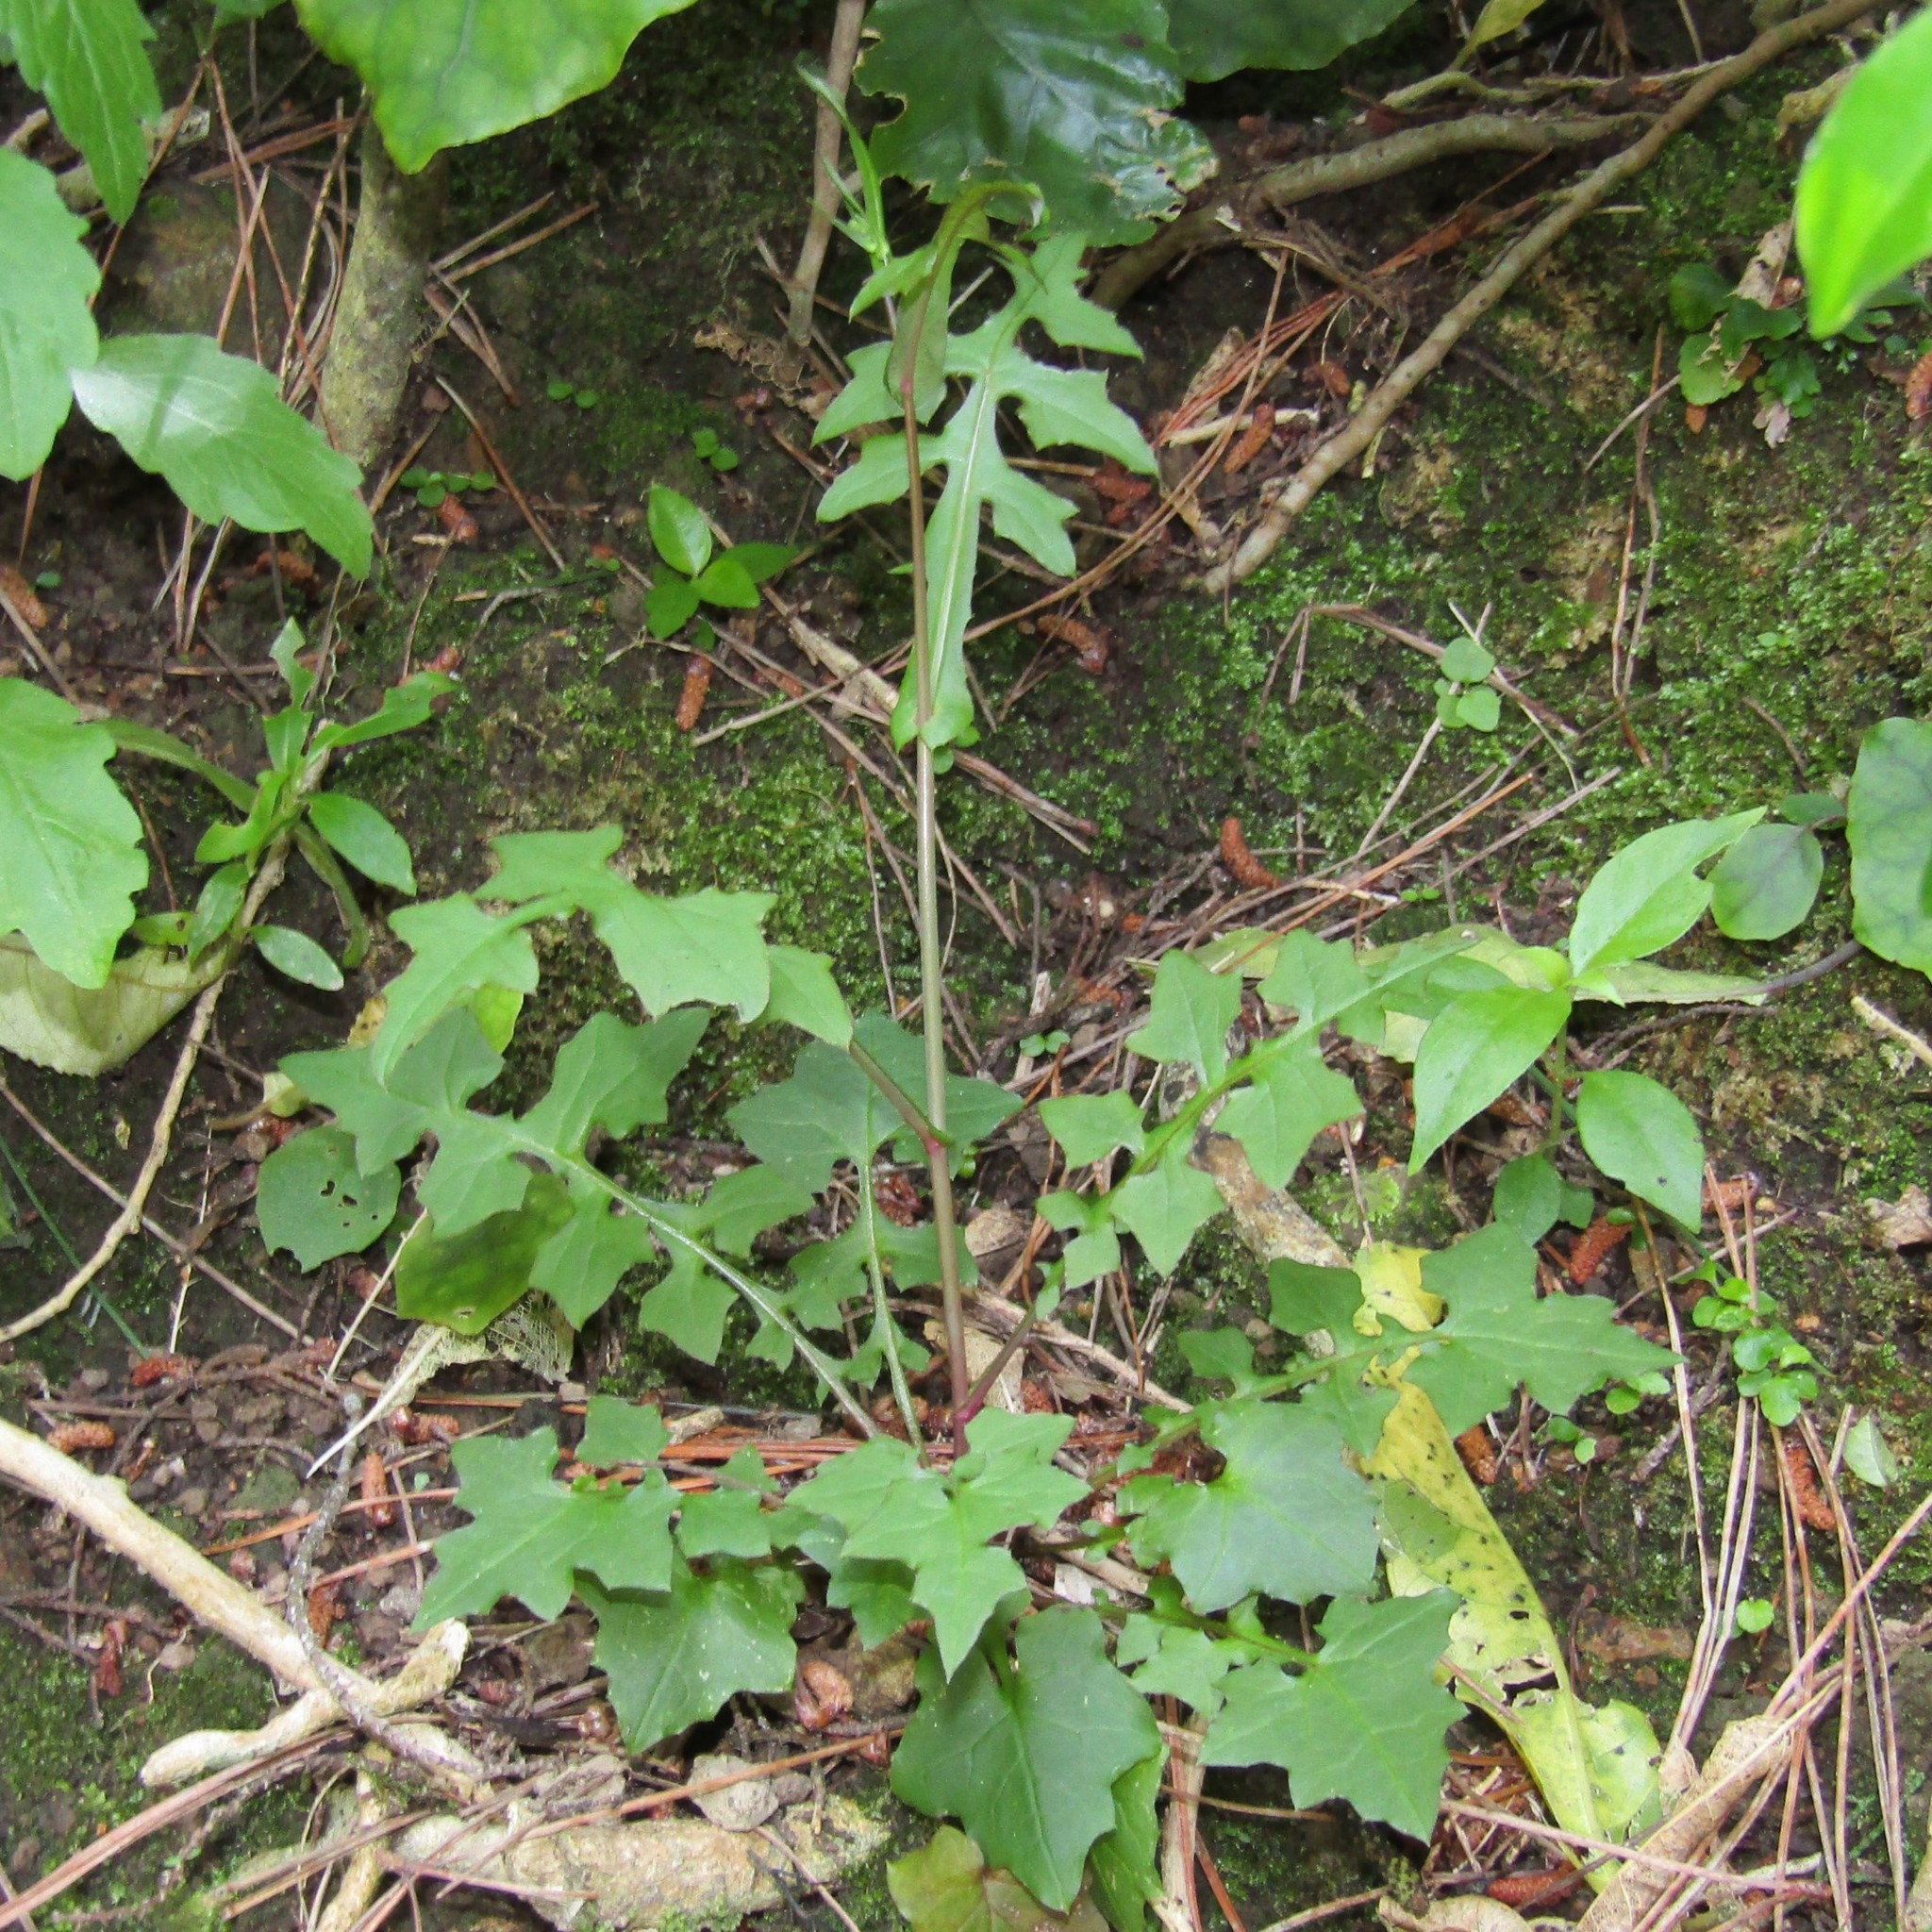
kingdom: Plantae
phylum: Tracheophyta
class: Magnoliopsida
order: Asterales
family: Asteraceae
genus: Mycelis
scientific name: Mycelis muralis
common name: Wall lettuce
